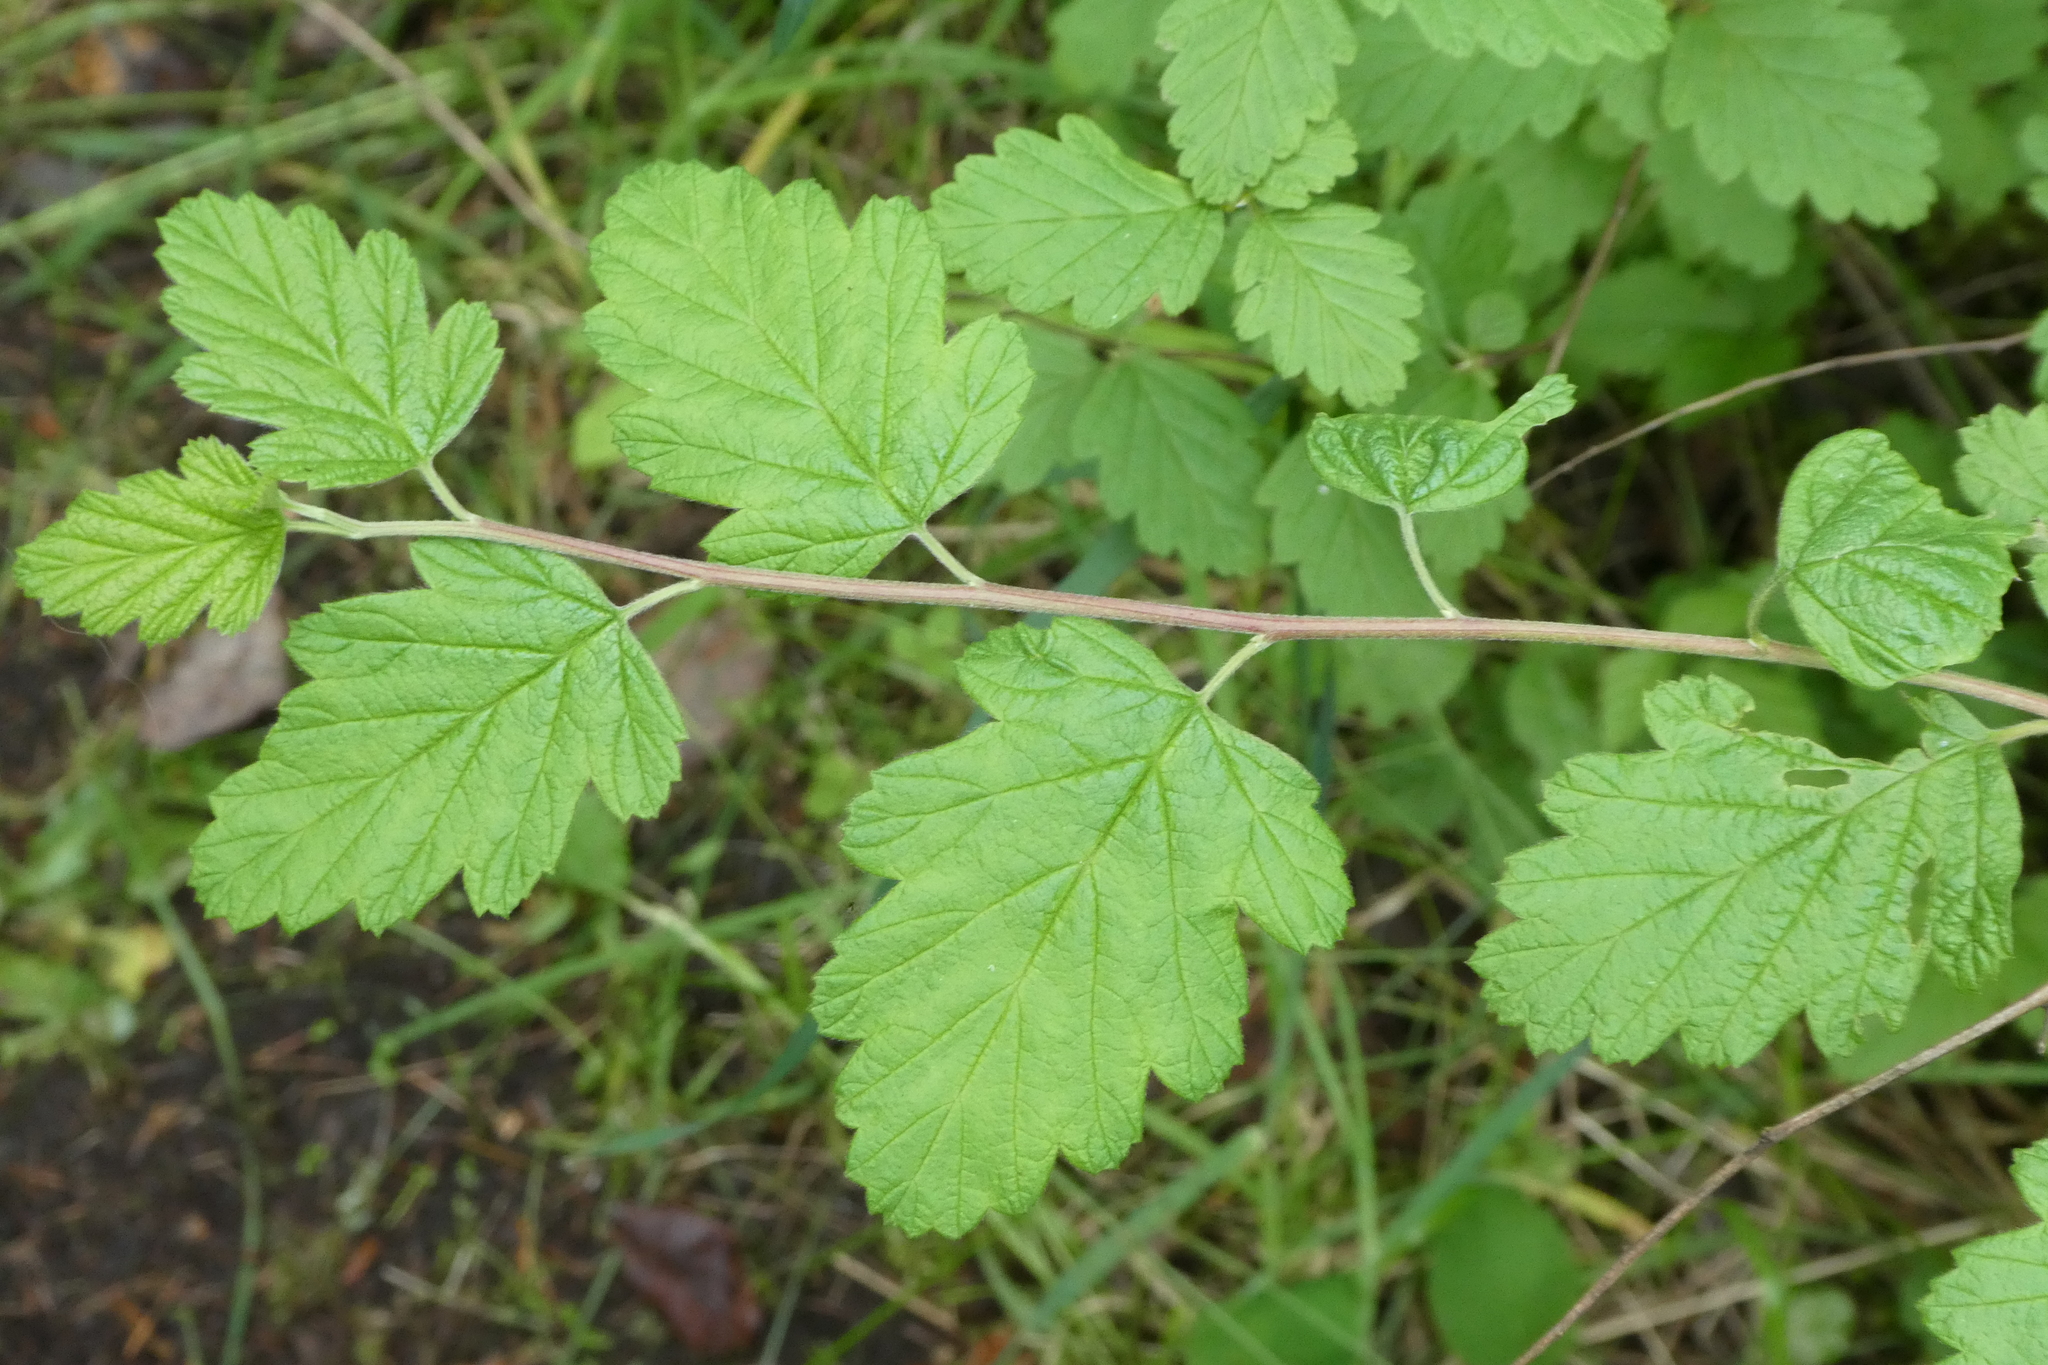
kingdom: Plantae
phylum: Tracheophyta
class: Magnoliopsida
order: Rosales
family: Rosaceae
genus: Holodiscus
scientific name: Holodiscus discolor
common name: Oceanspray
